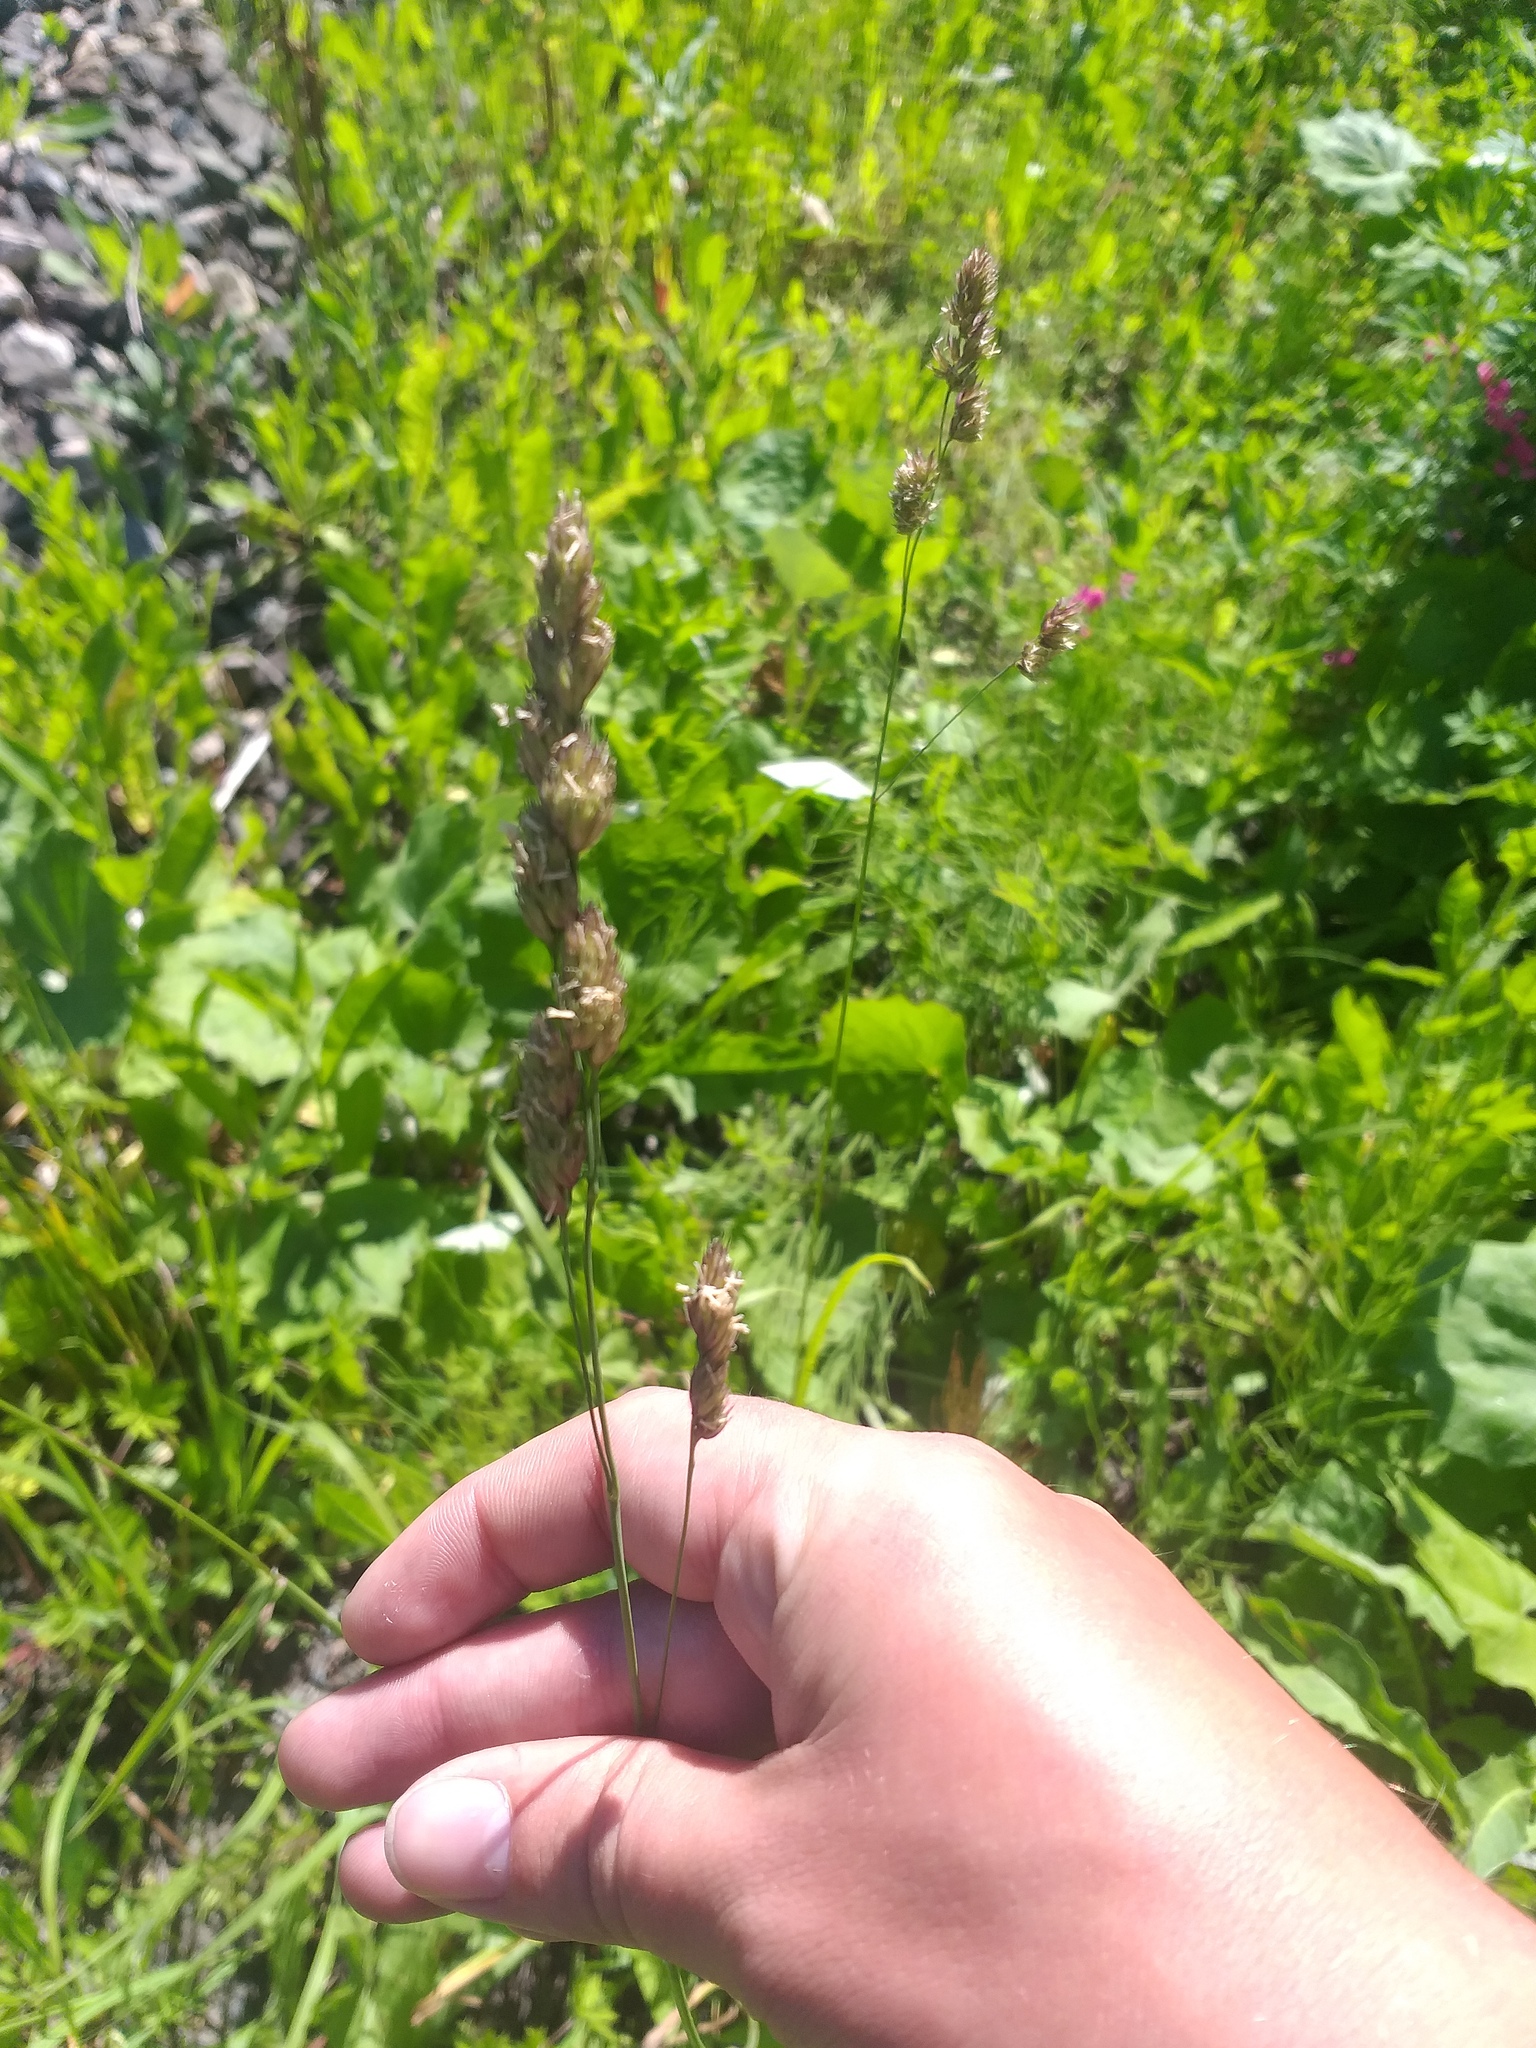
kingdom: Plantae
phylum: Tracheophyta
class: Liliopsida
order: Poales
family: Poaceae
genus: Dactylis
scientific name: Dactylis glomerata
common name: Orchardgrass
